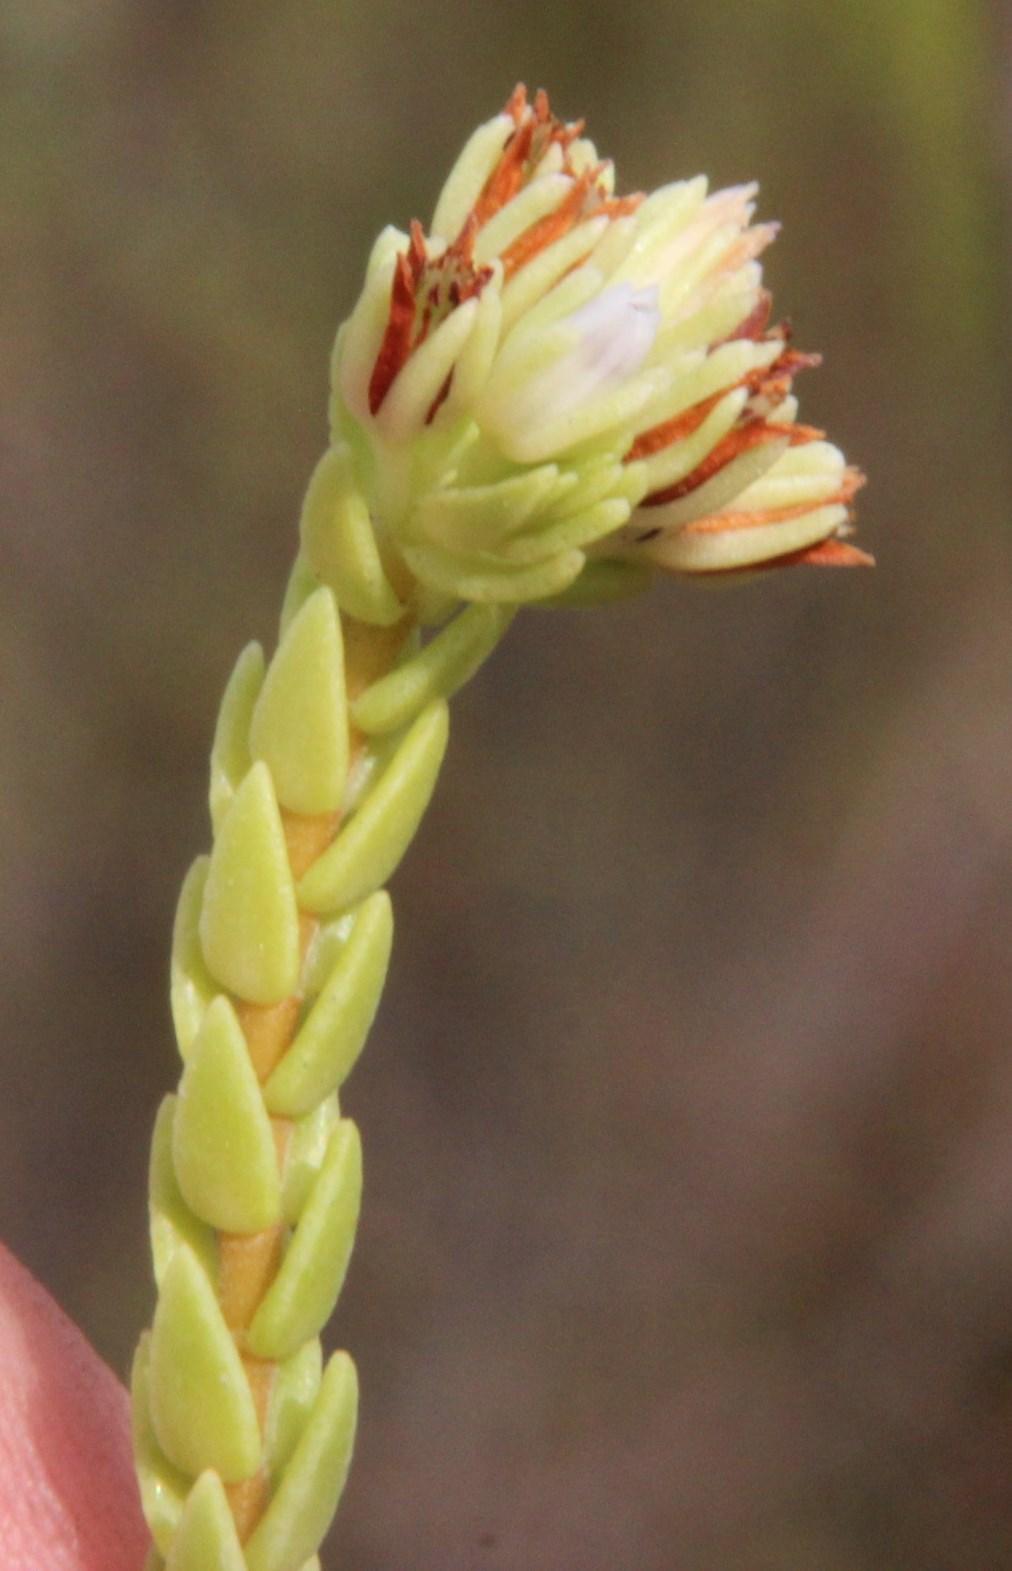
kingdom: Plantae
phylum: Tracheophyta
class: Magnoliopsida
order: Saxifragales
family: Crassulaceae
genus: Crassula
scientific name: Crassula ericoides
